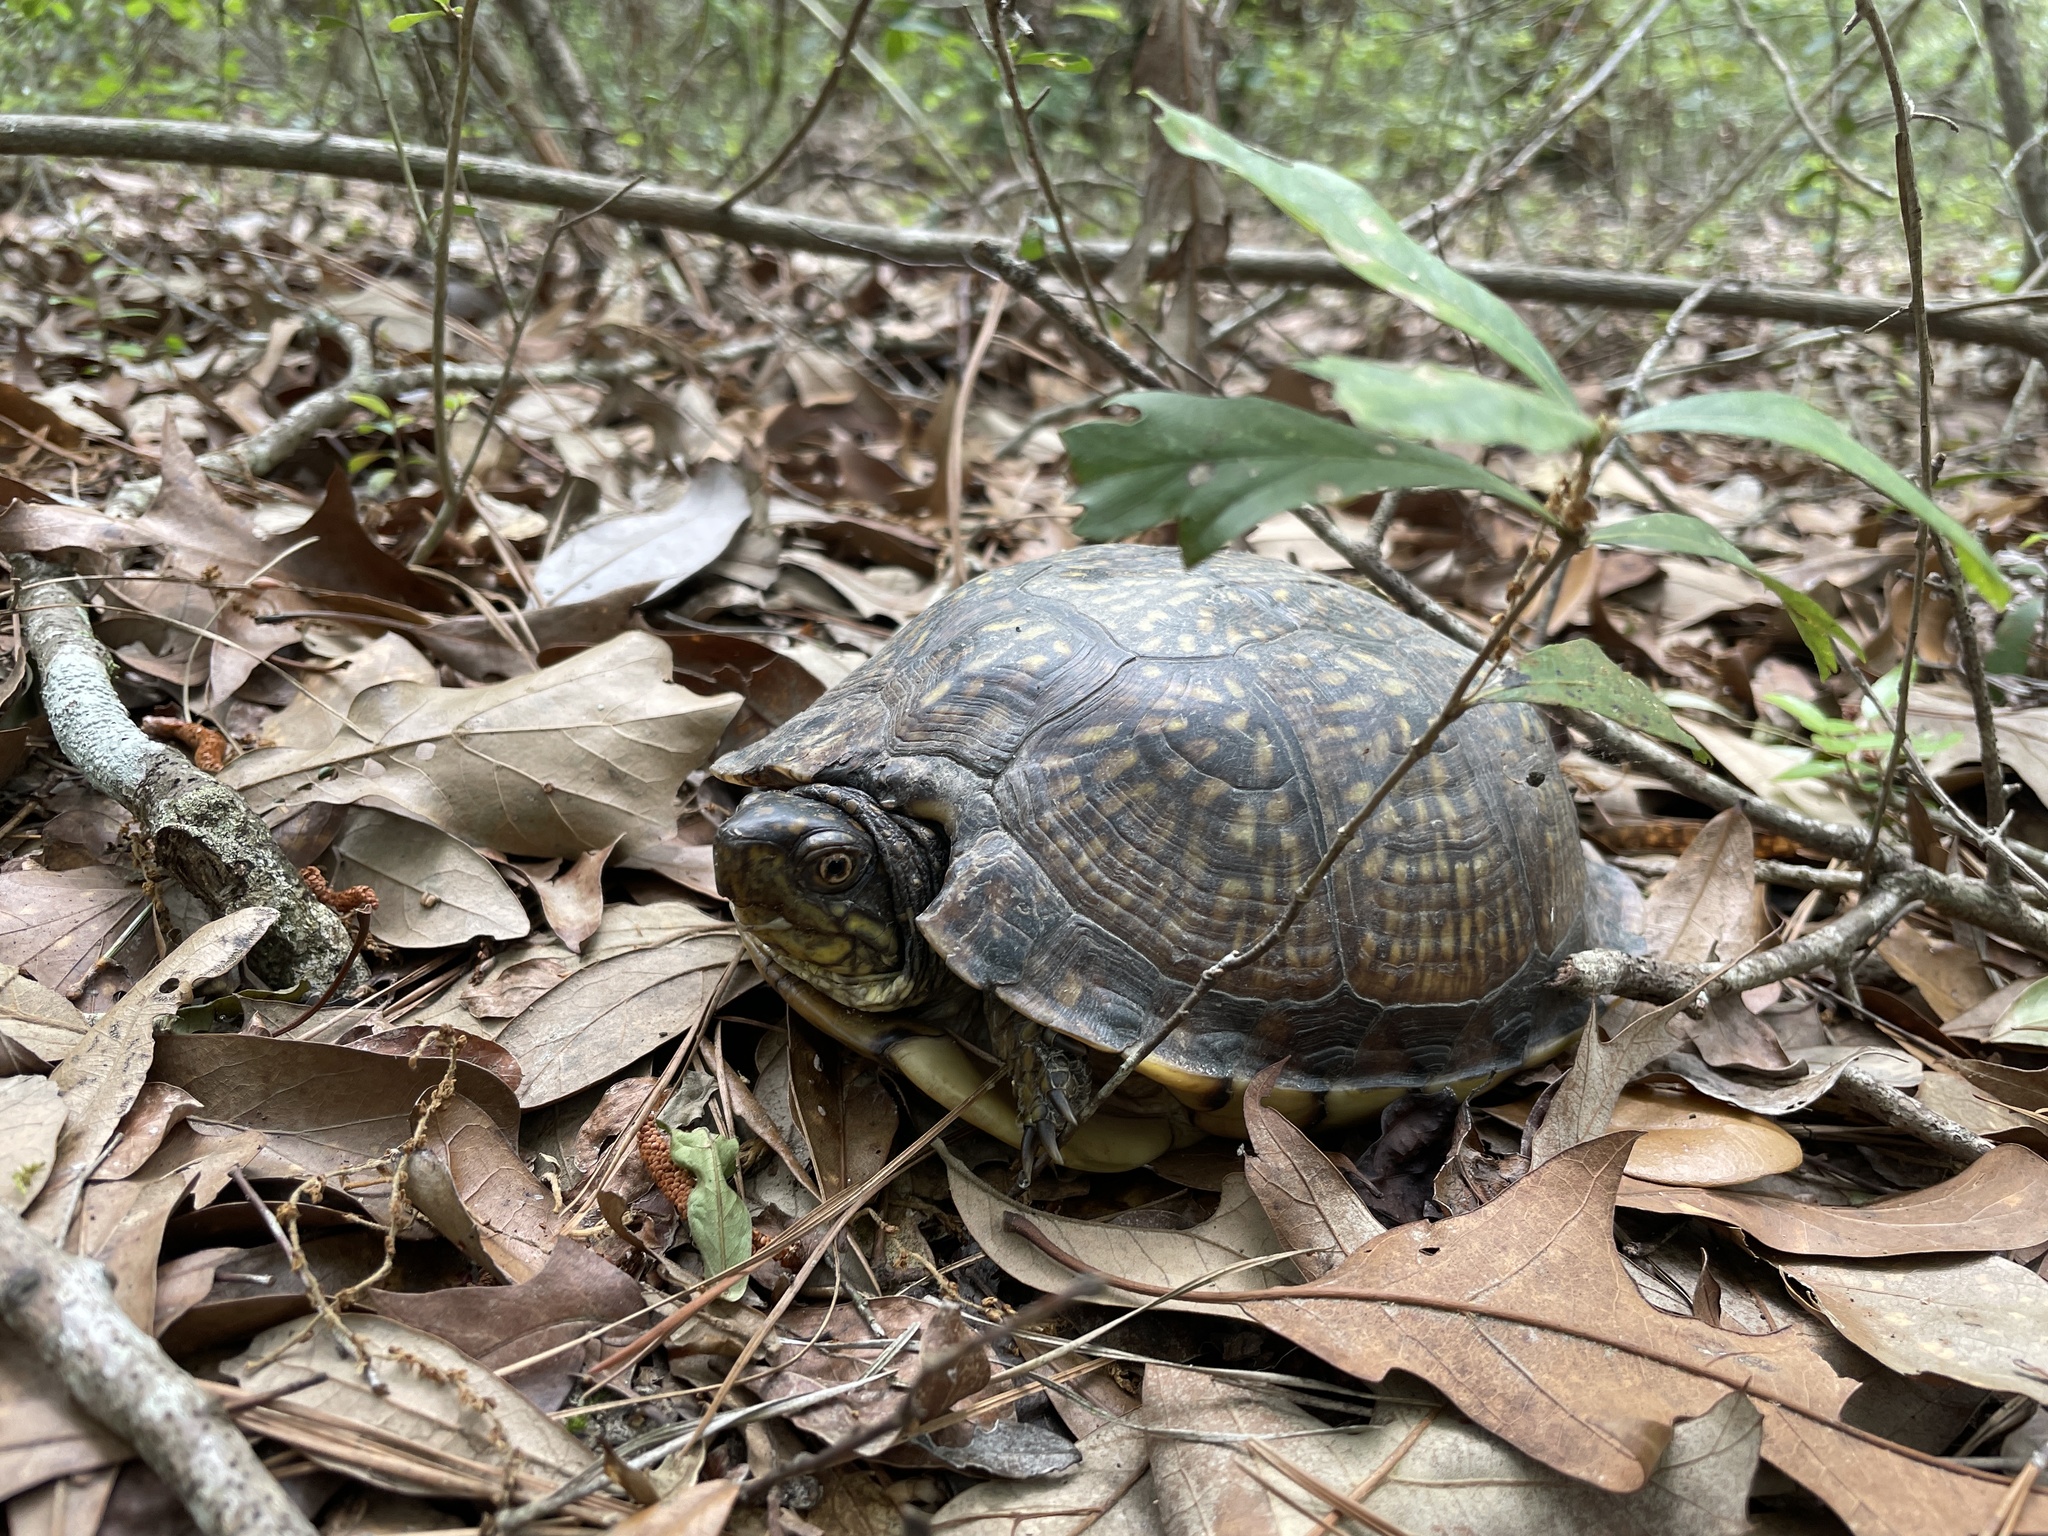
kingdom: Animalia
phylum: Chordata
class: Testudines
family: Emydidae
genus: Terrapene
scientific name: Terrapene carolina
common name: Common box turtle
